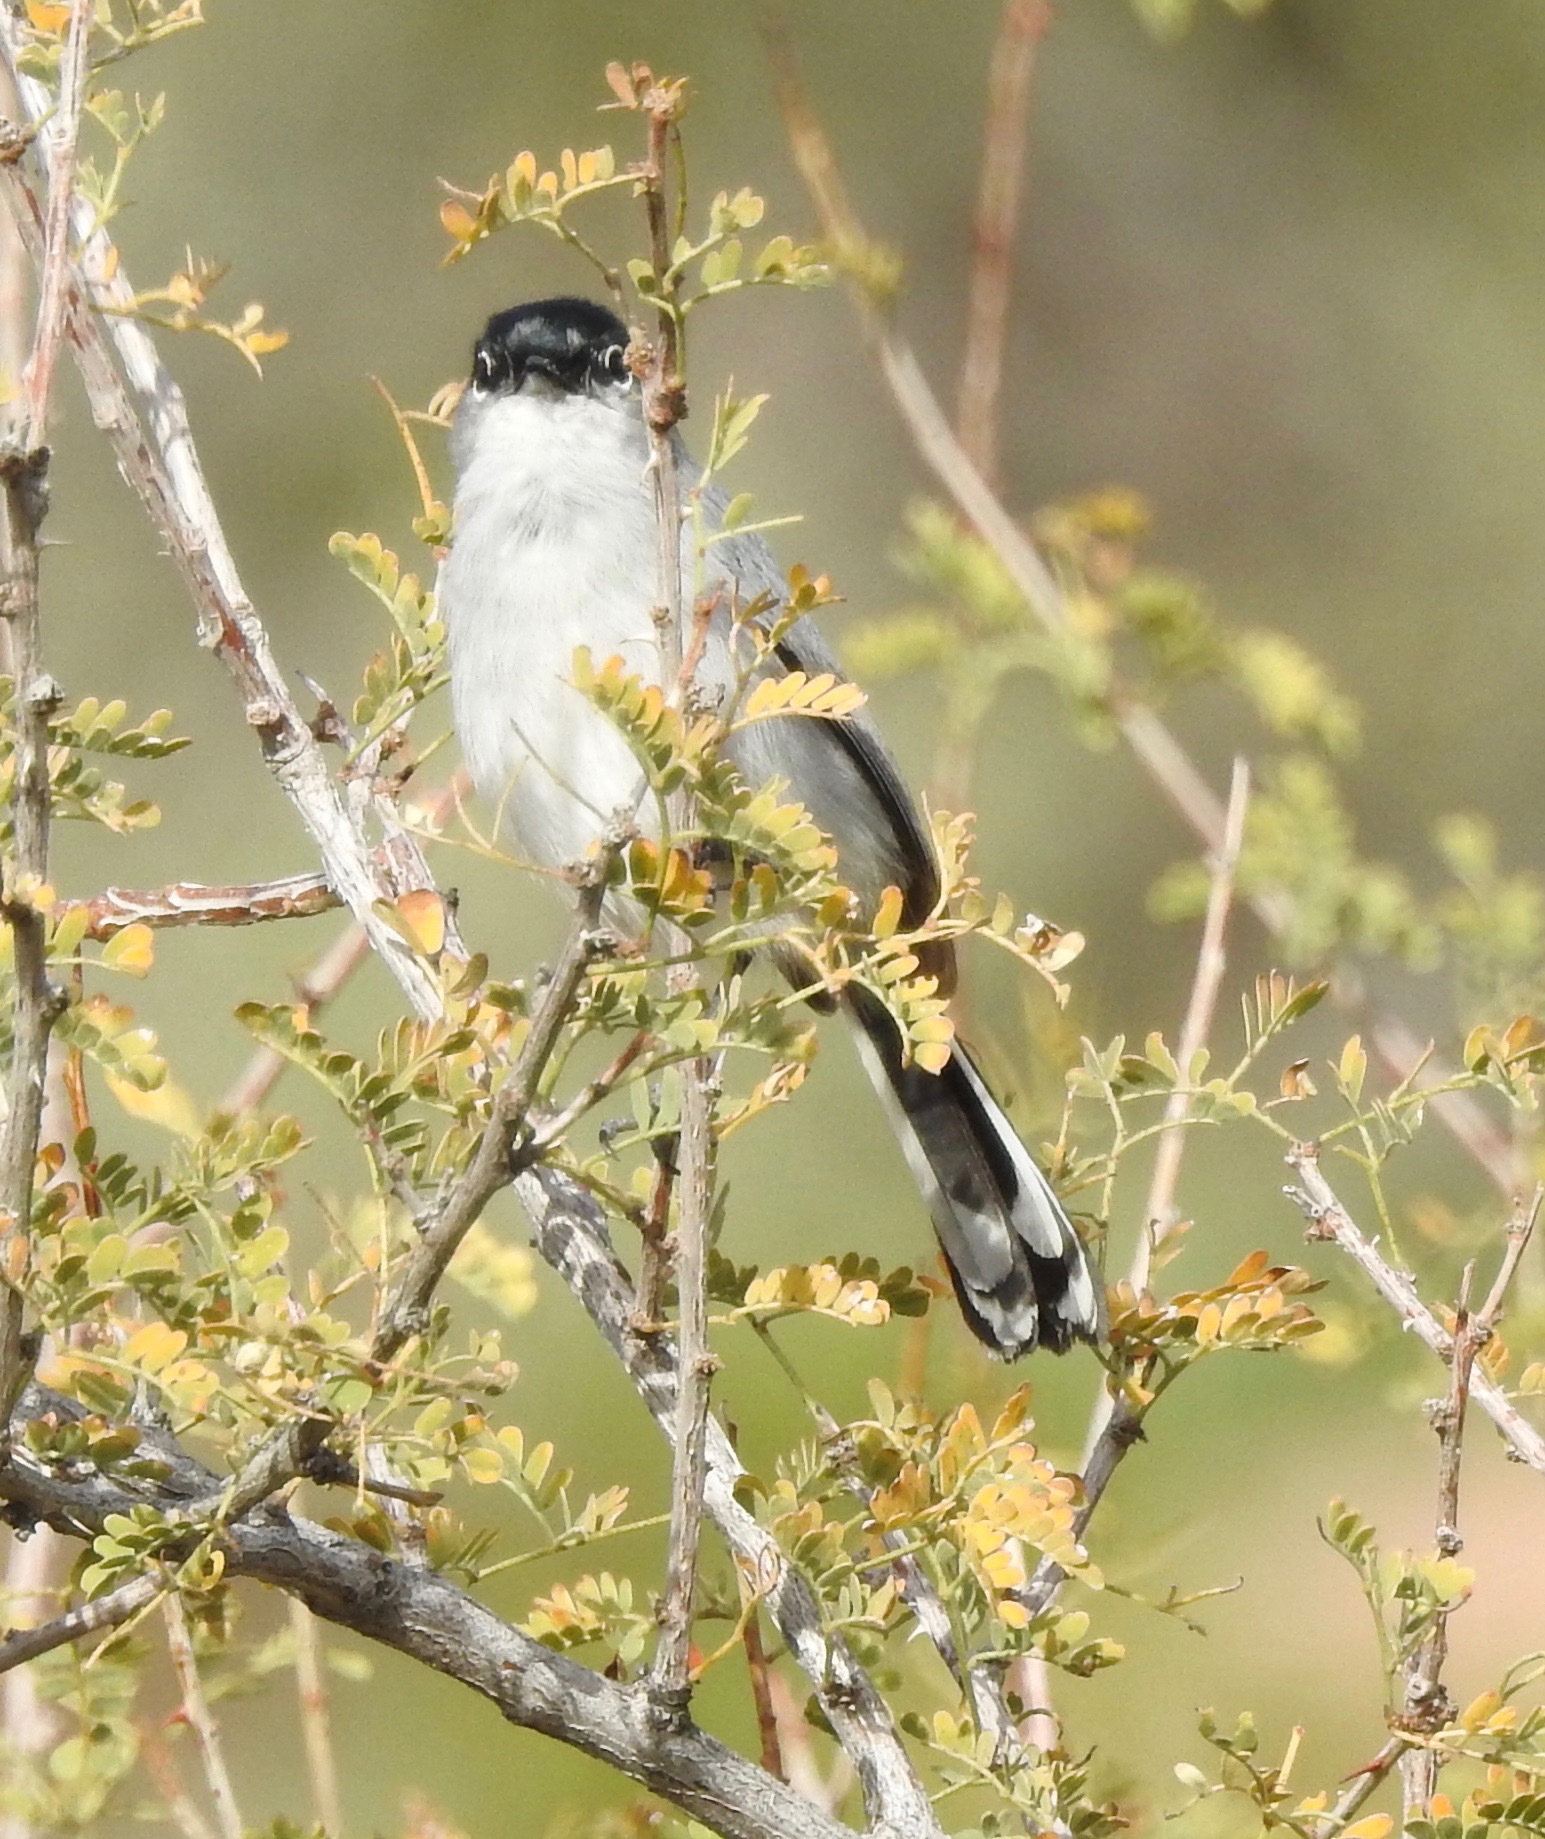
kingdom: Animalia
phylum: Chordata
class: Aves
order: Passeriformes
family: Polioptilidae
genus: Polioptila
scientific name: Polioptila melanura
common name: Black-tailed gnatcatcher
